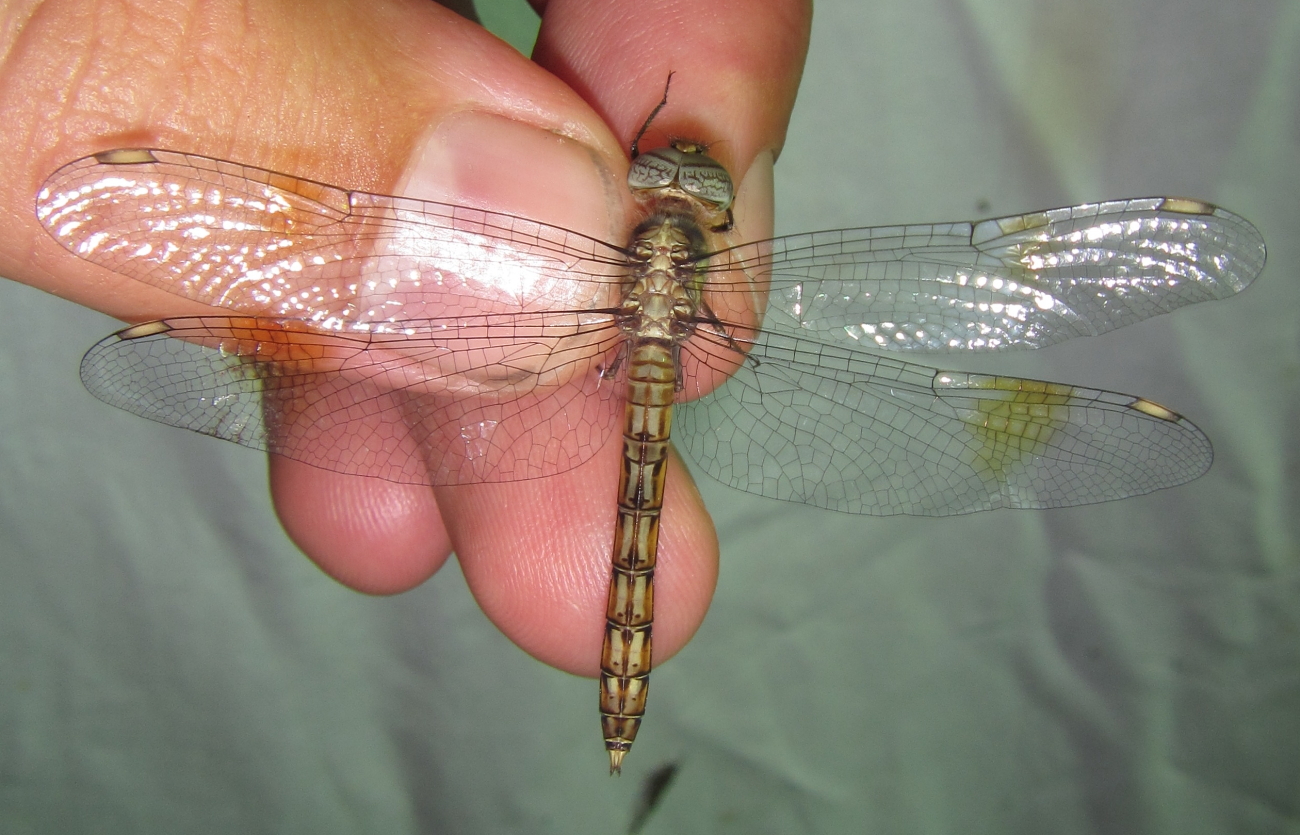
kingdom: Animalia
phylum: Arthropoda
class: Insecta
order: Odonata
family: Libellulidae
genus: Parazyxomma
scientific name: Parazyxomma flavicans
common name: Banded duskdarter
